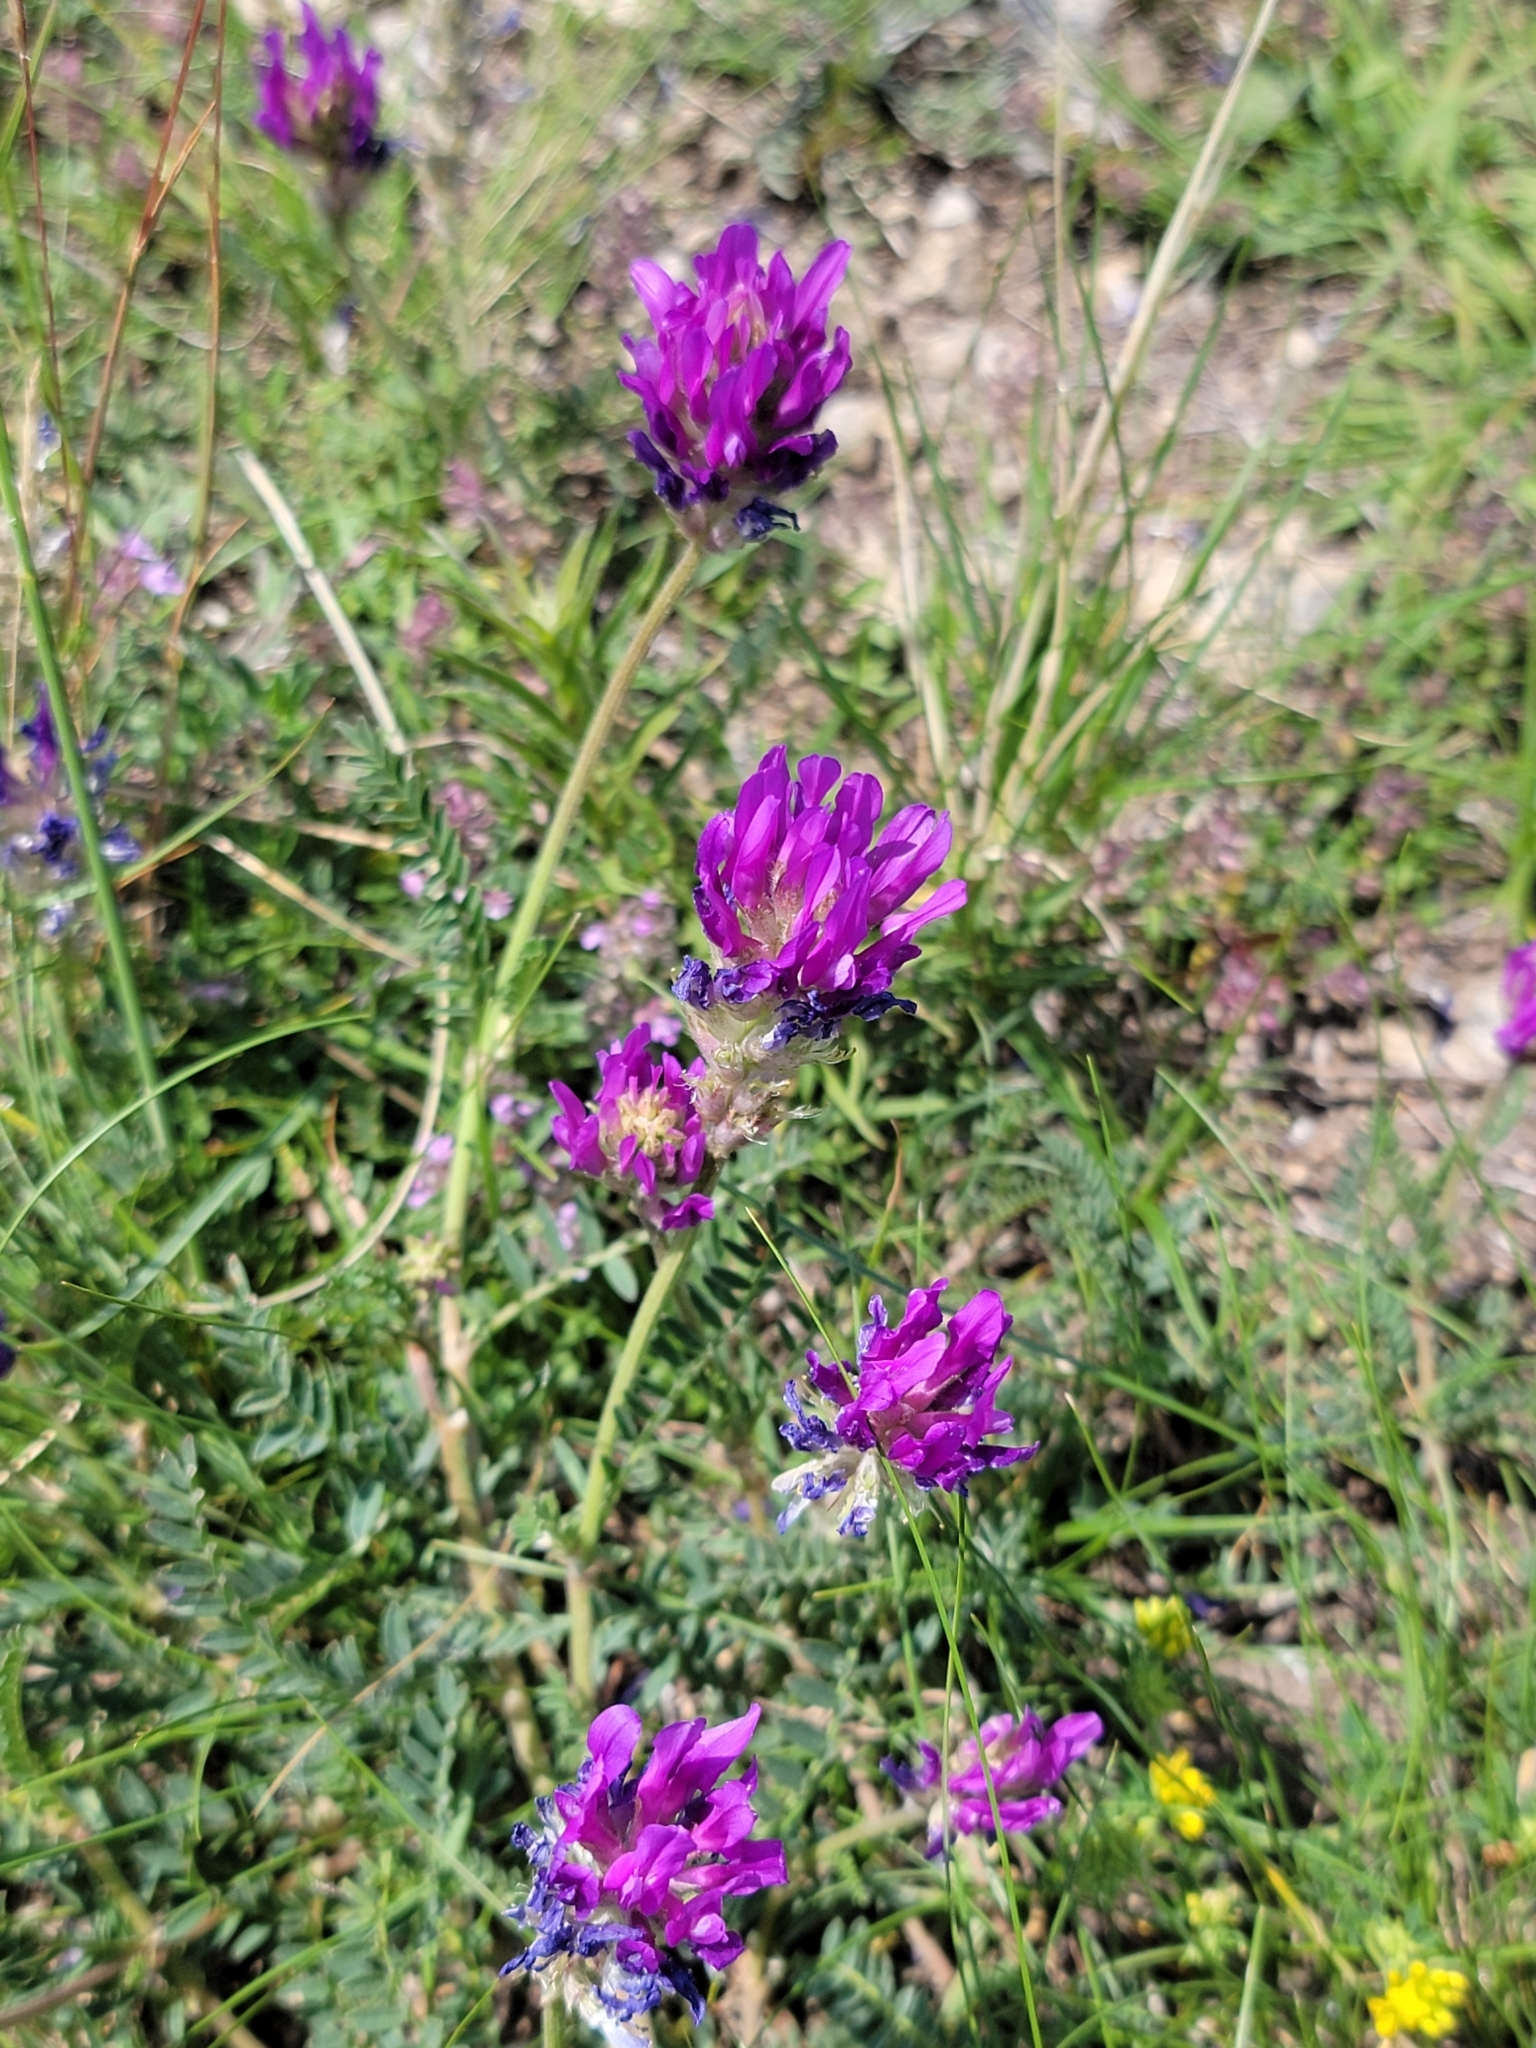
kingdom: Plantae
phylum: Tracheophyta
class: Magnoliopsida
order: Fabales
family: Fabaceae
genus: Astragalus
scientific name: Astragalus onobrychis
